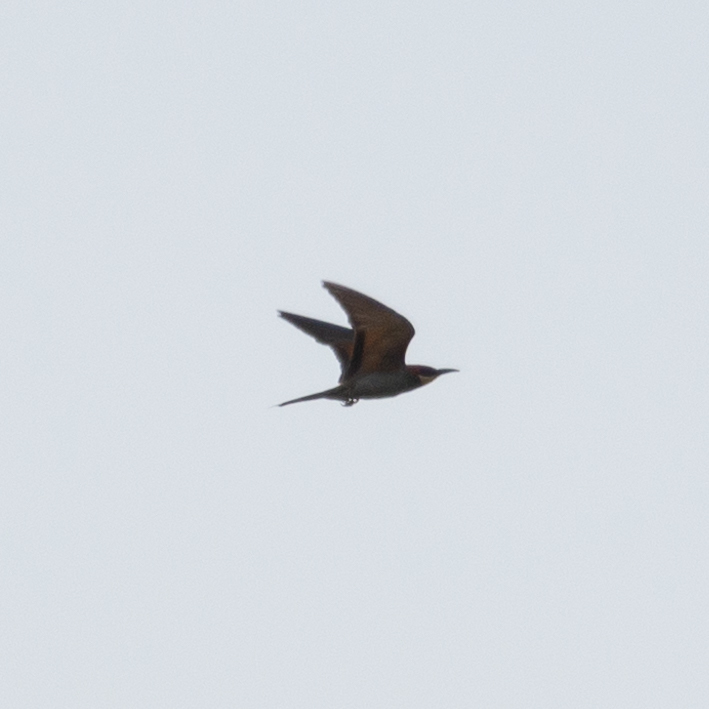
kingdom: Animalia
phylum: Chordata
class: Aves
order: Coraciiformes
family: Meropidae
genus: Merops
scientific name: Merops apiaster
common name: European bee-eater
